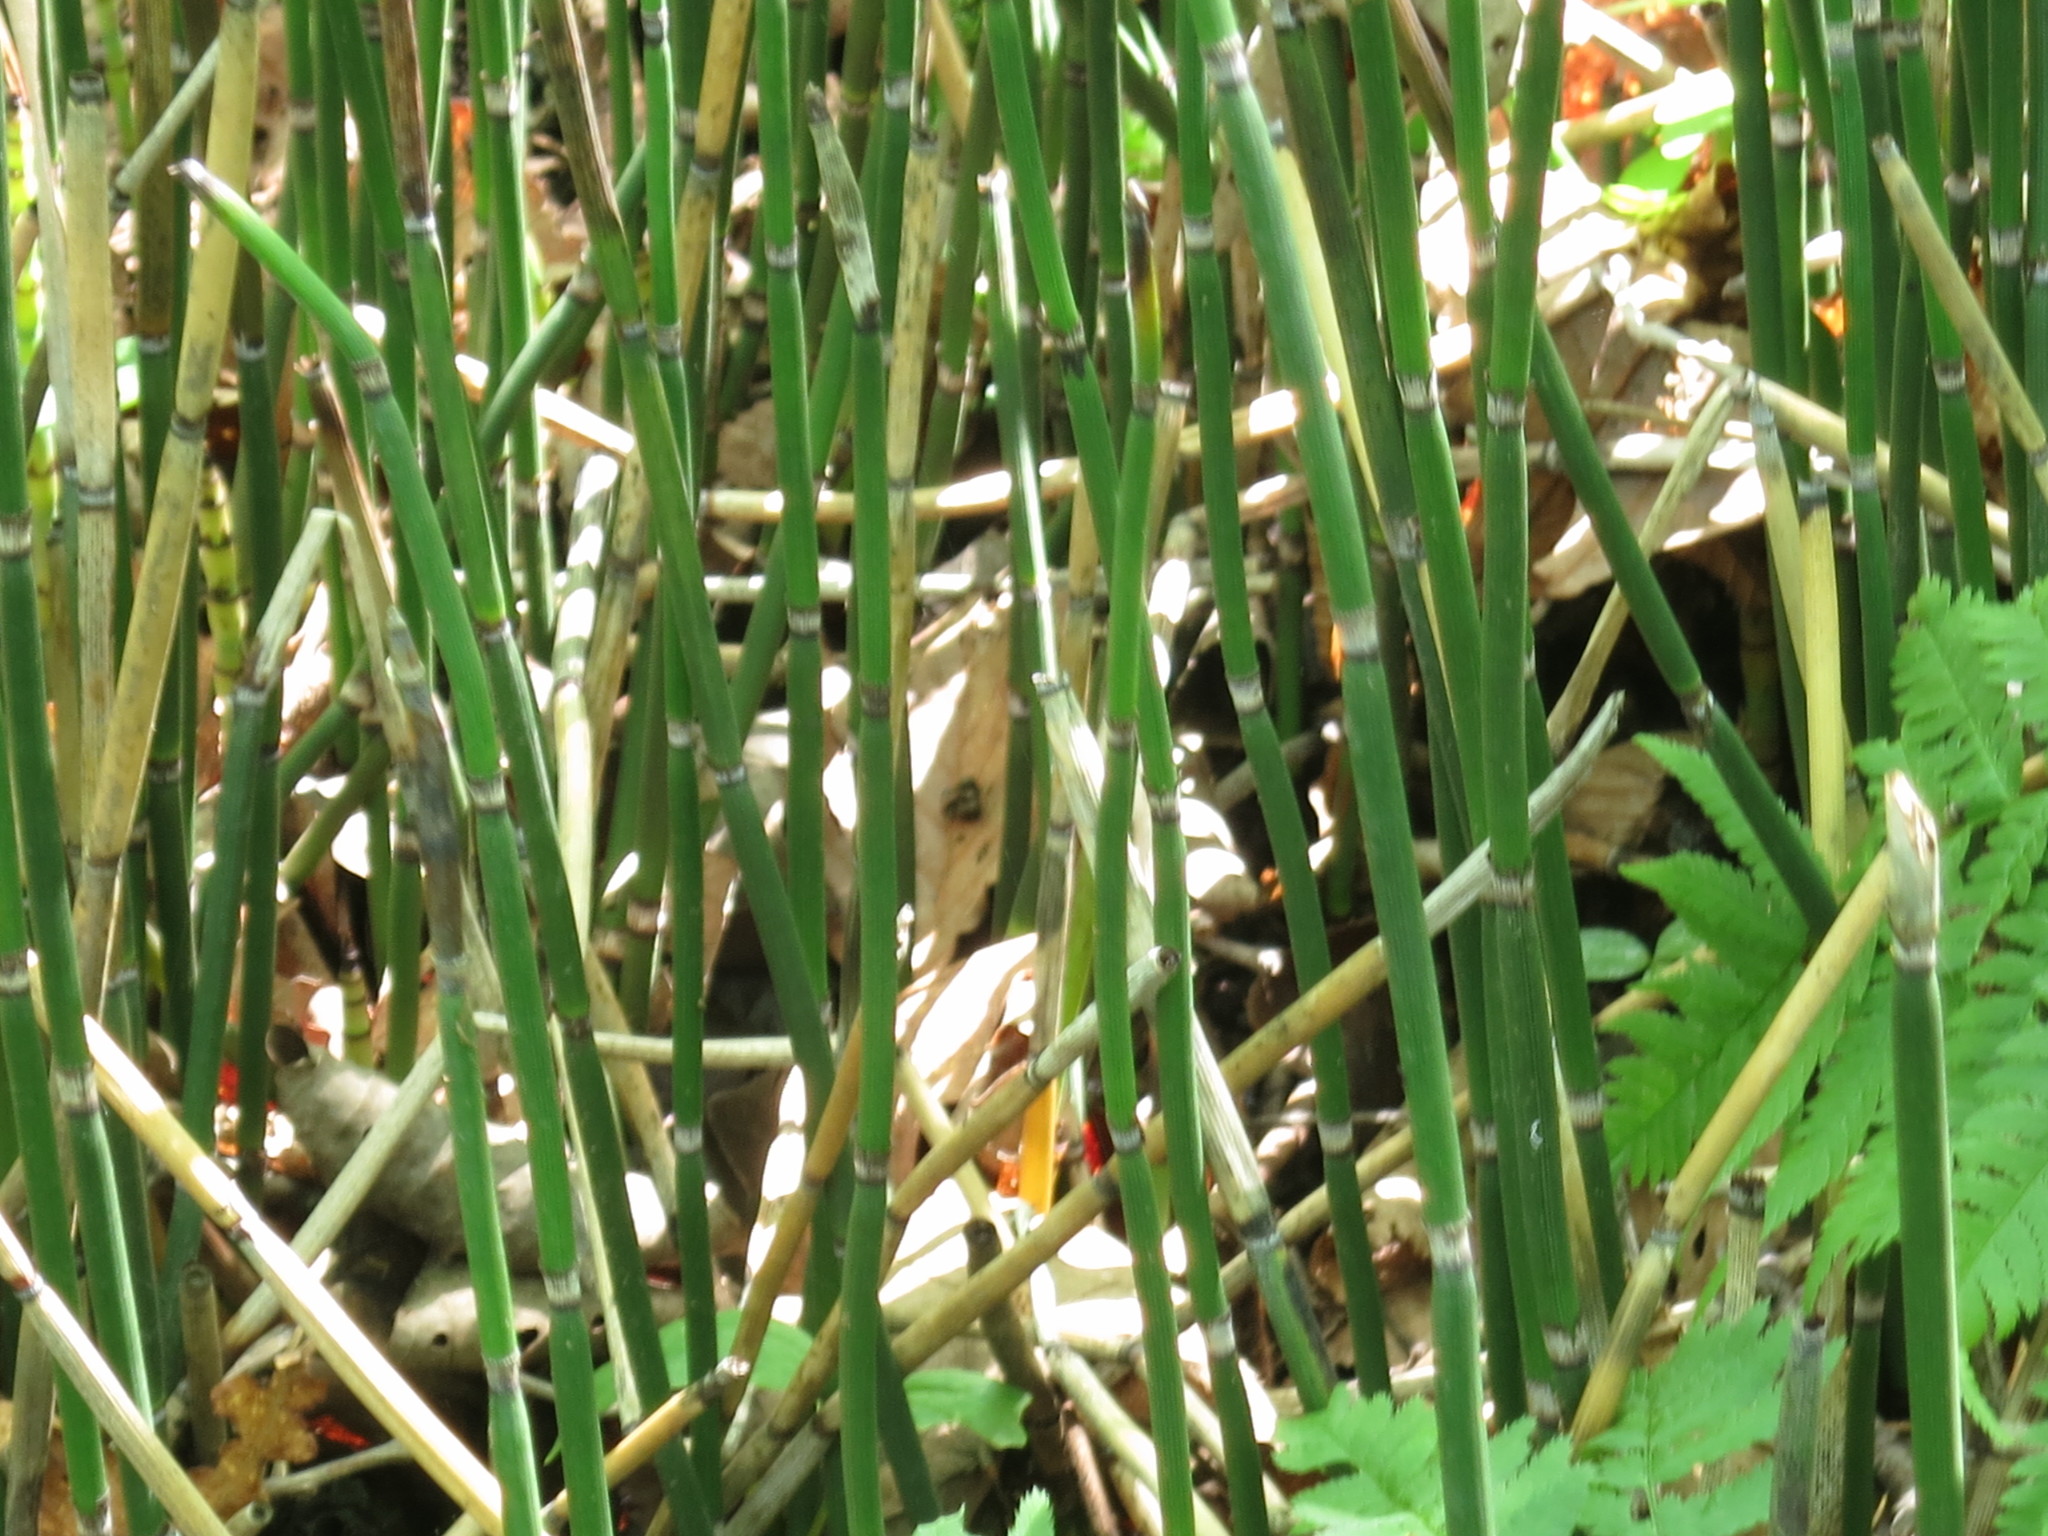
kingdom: Plantae
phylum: Tracheophyta
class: Polypodiopsida
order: Equisetales
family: Equisetaceae
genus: Equisetum
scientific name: Equisetum hyemale
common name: Rough horsetail
